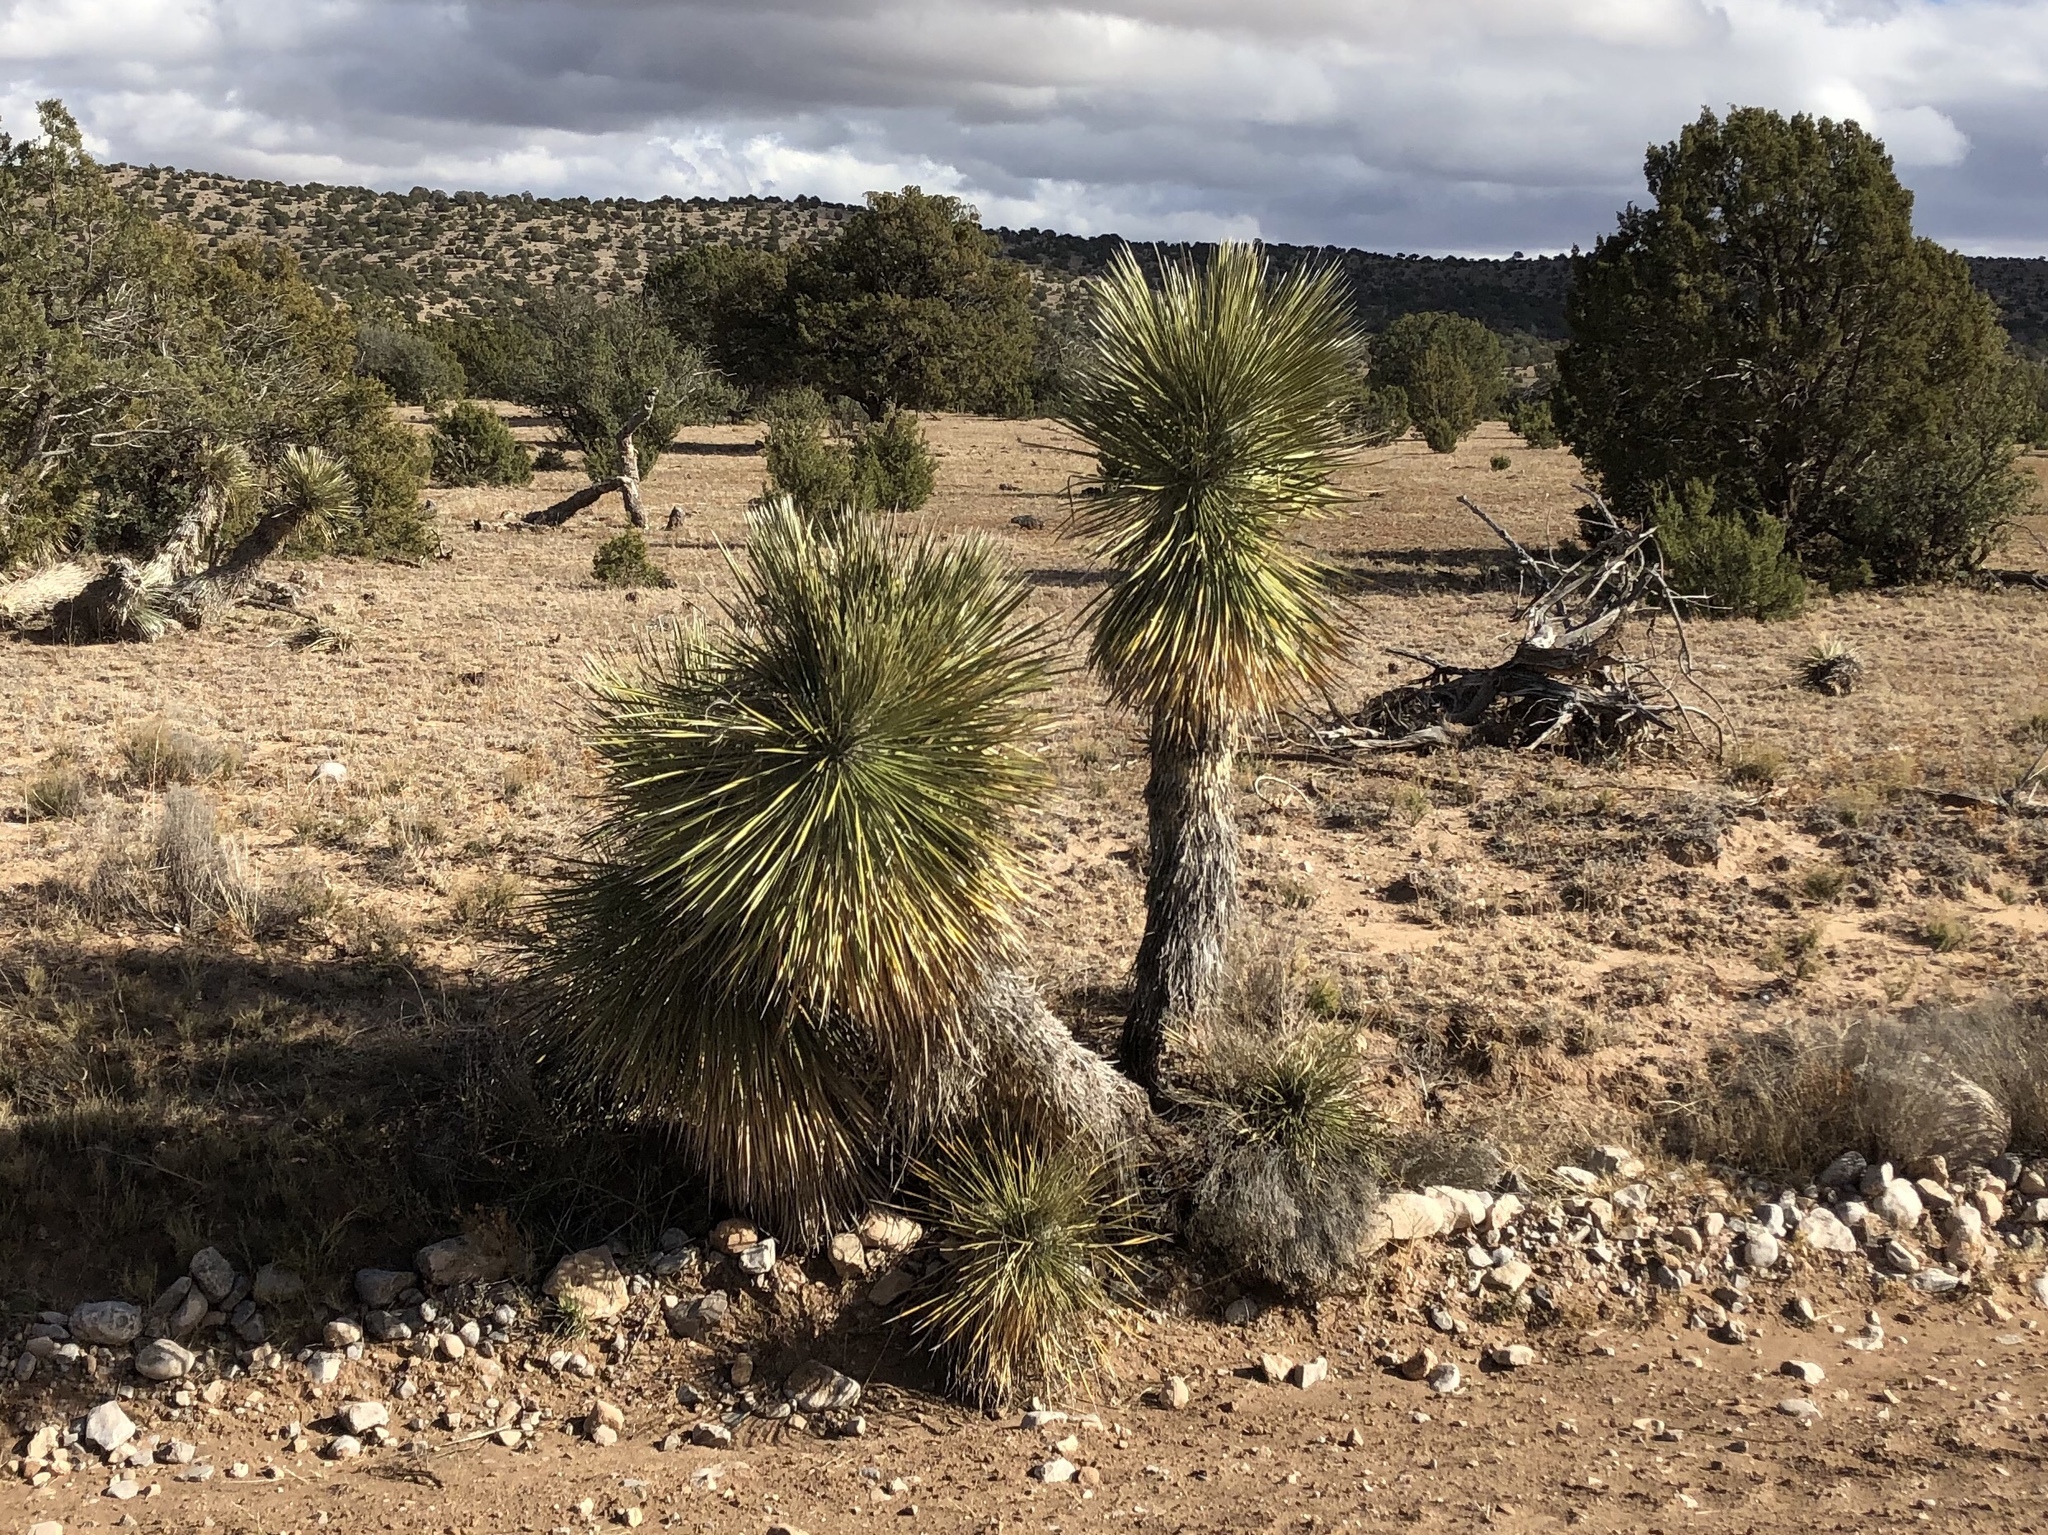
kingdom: Plantae
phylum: Tracheophyta
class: Liliopsida
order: Asparagales
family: Asparagaceae
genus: Yucca
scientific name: Yucca elata
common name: Palmella
